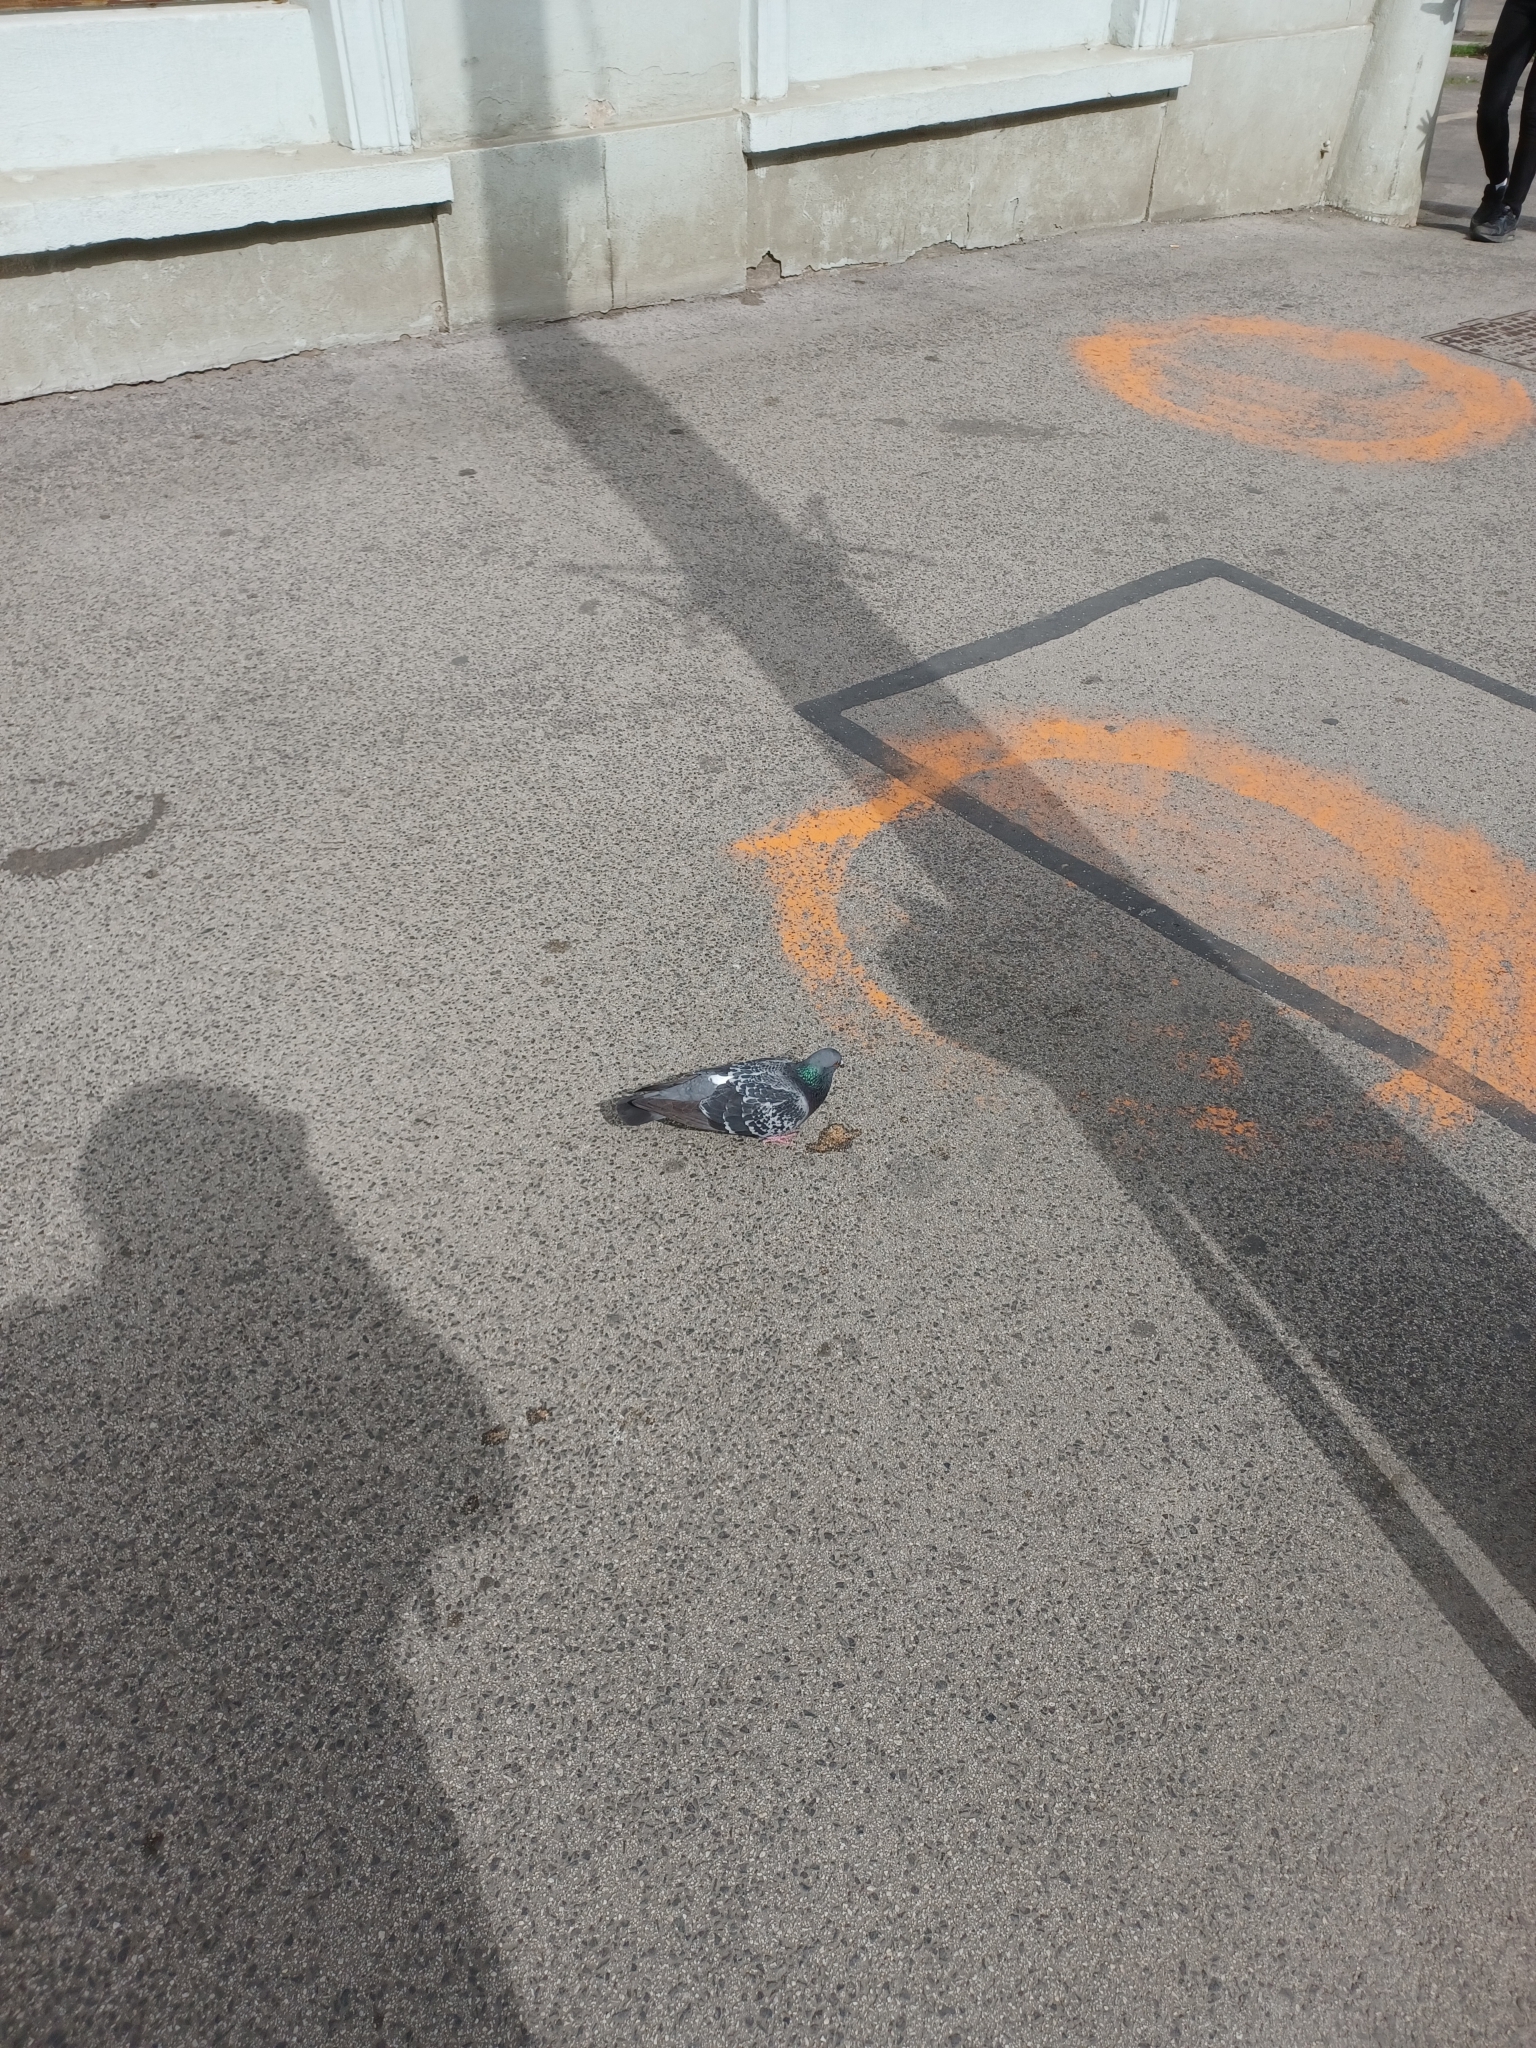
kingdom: Animalia
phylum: Chordata
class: Aves
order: Columbiformes
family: Columbidae
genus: Columba
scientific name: Columba livia
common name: Rock pigeon
